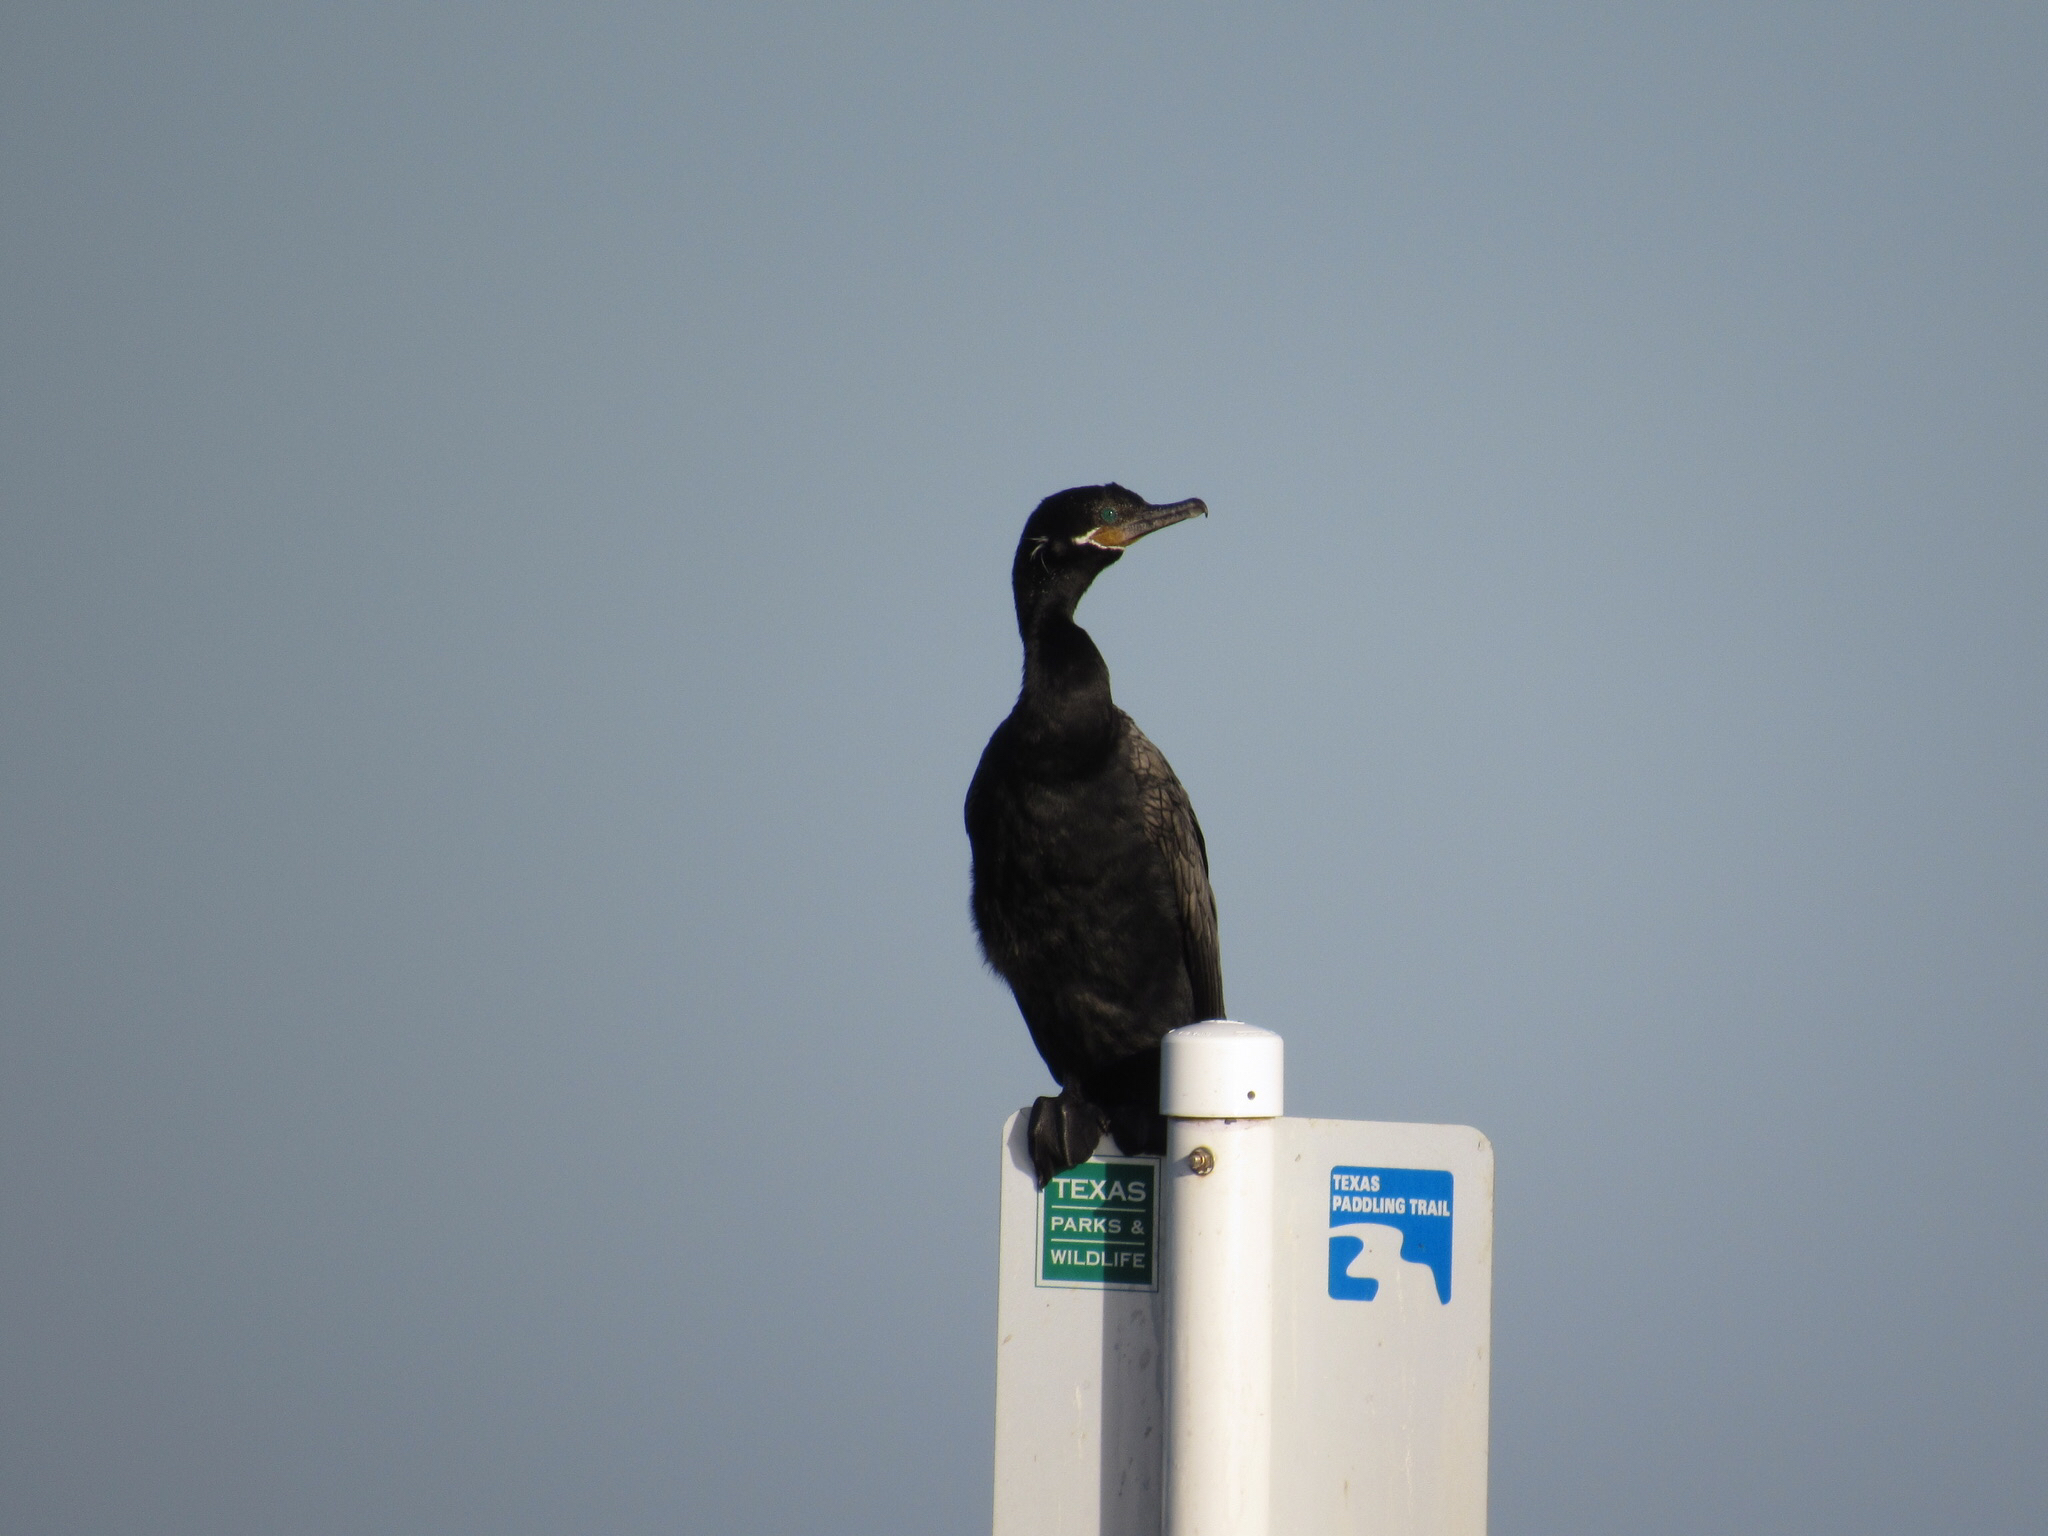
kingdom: Animalia
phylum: Chordata
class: Aves
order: Suliformes
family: Phalacrocoracidae
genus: Phalacrocorax
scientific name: Phalacrocorax brasilianus
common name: Neotropic cormorant
